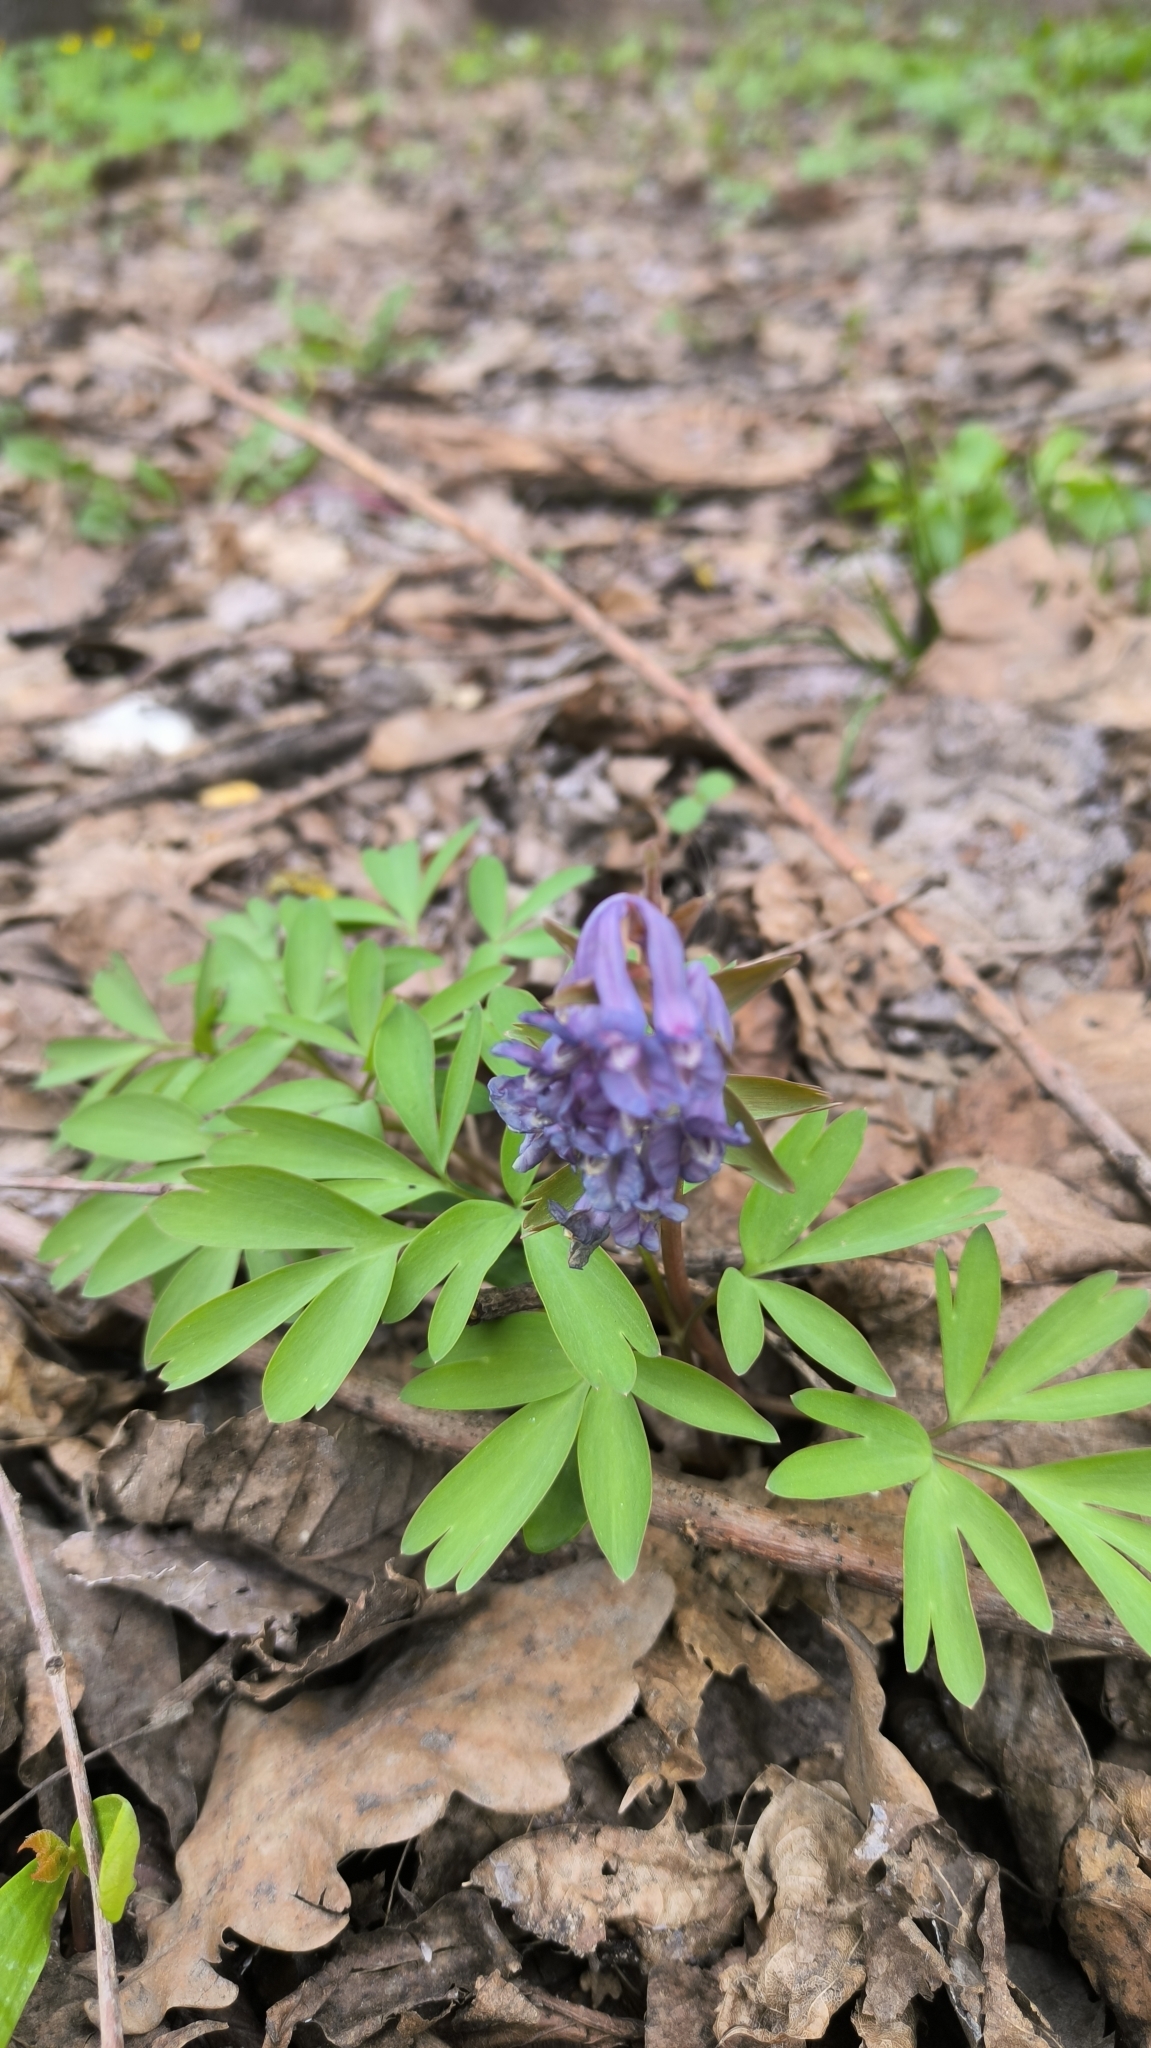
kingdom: Plantae
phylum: Tracheophyta
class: Magnoliopsida
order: Ranunculales
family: Papaveraceae
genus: Corydalis
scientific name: Corydalis solida
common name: Bird-in-a-bush
